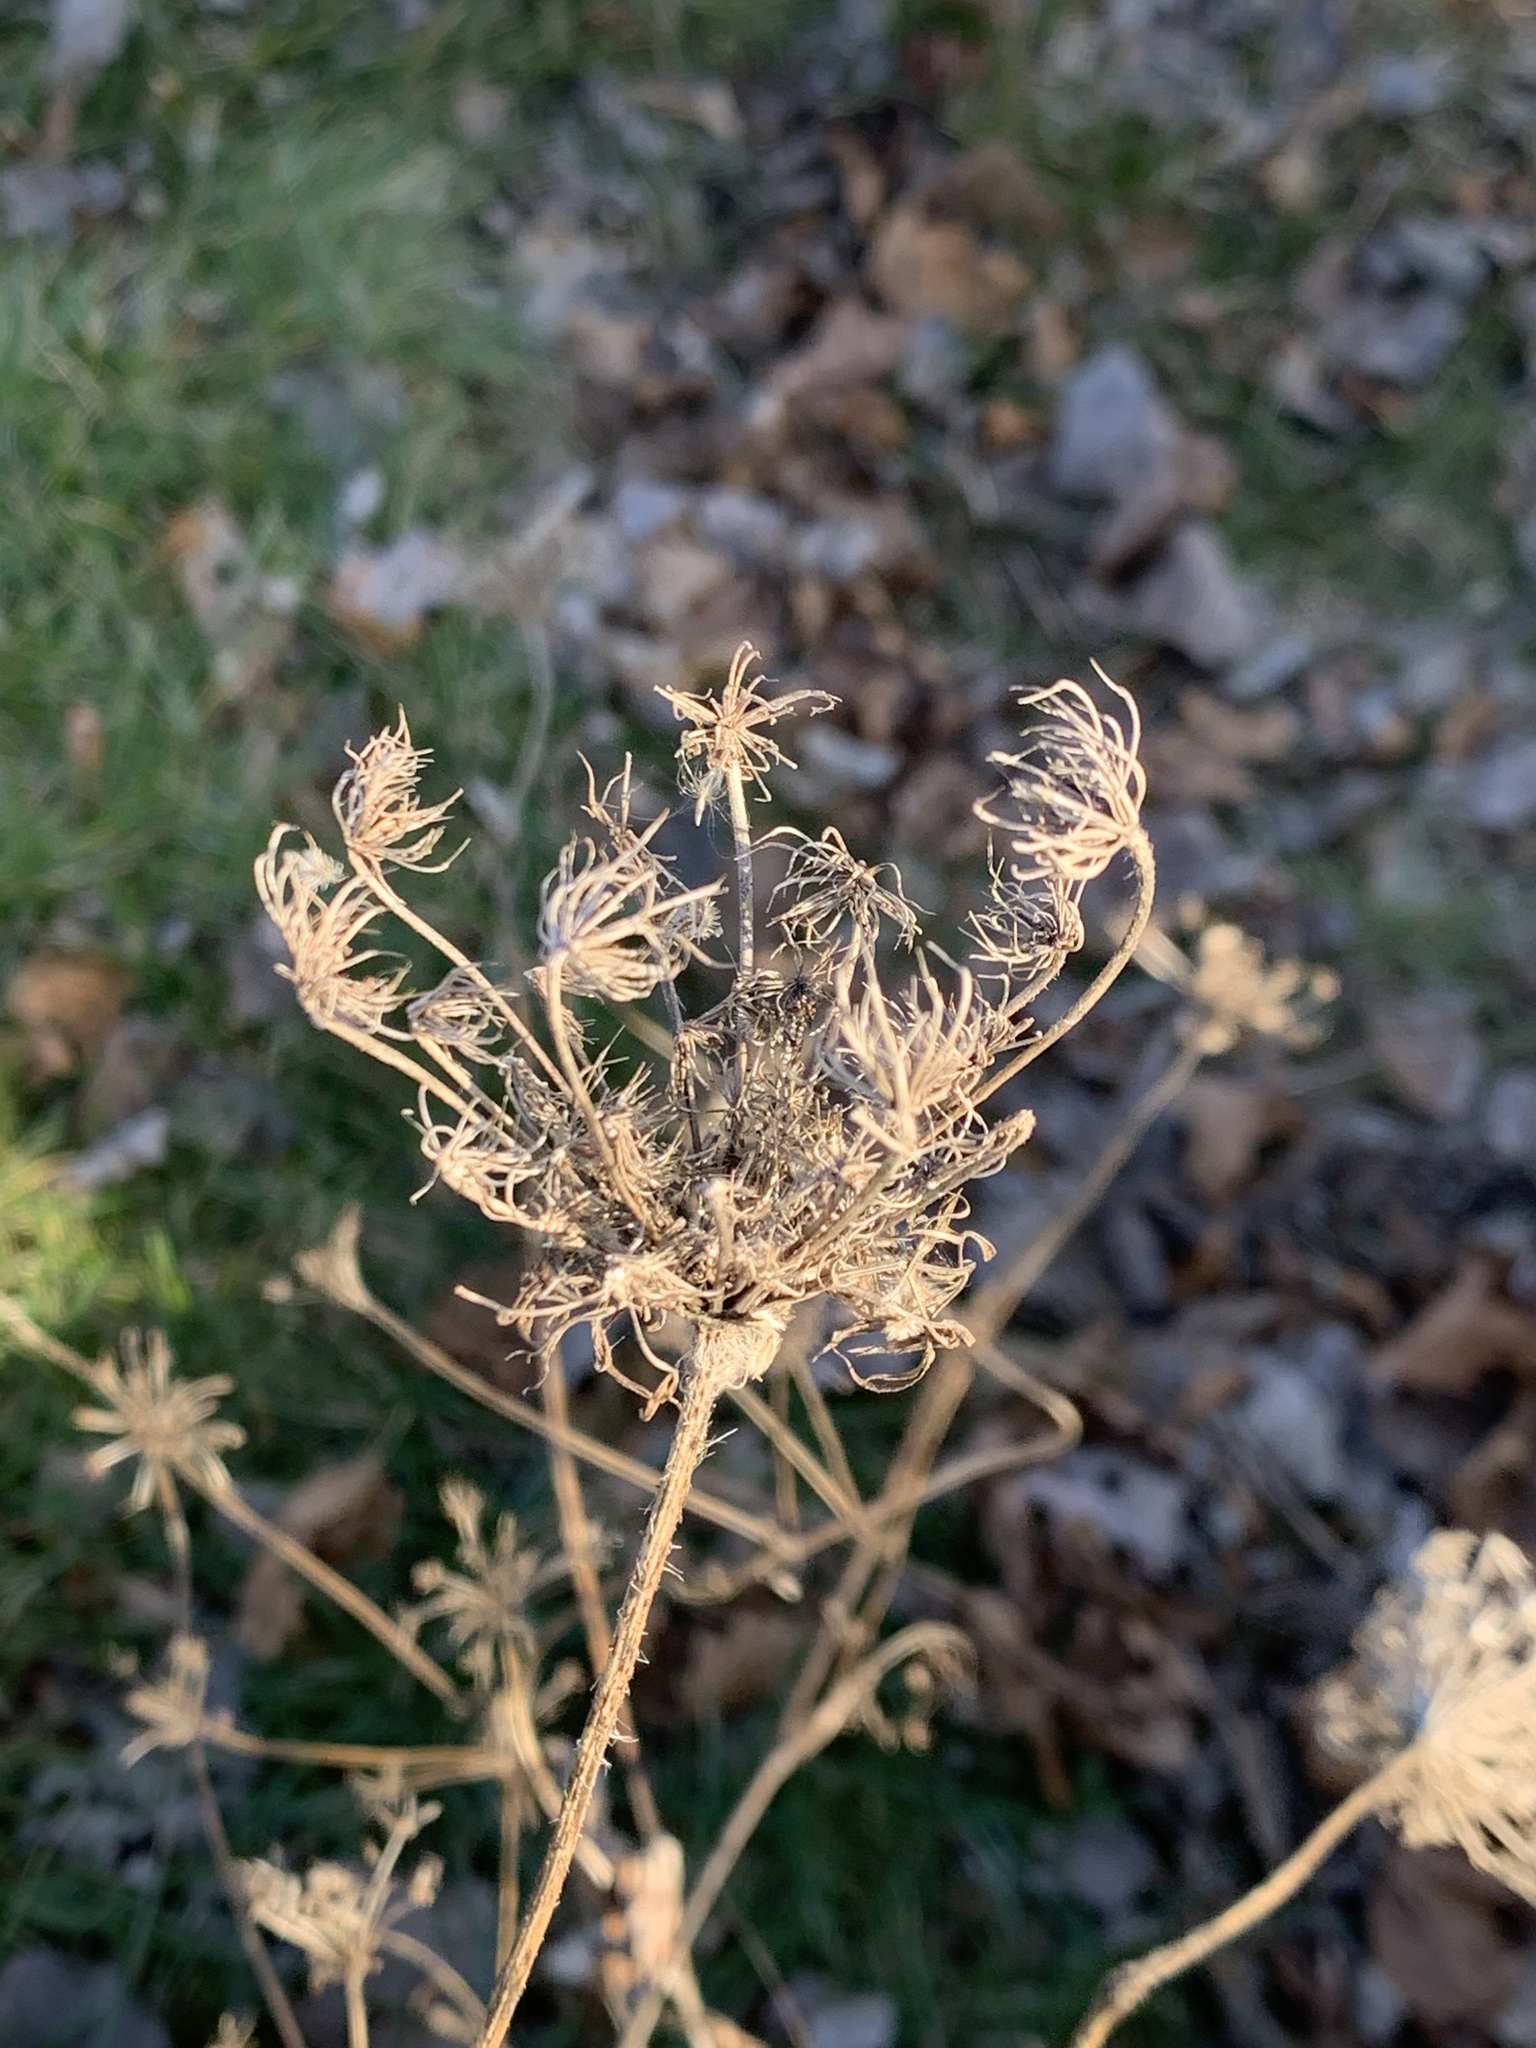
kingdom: Plantae
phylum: Tracheophyta
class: Magnoliopsida
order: Apiales
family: Apiaceae
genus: Daucus
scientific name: Daucus carota
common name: Wild carrot
